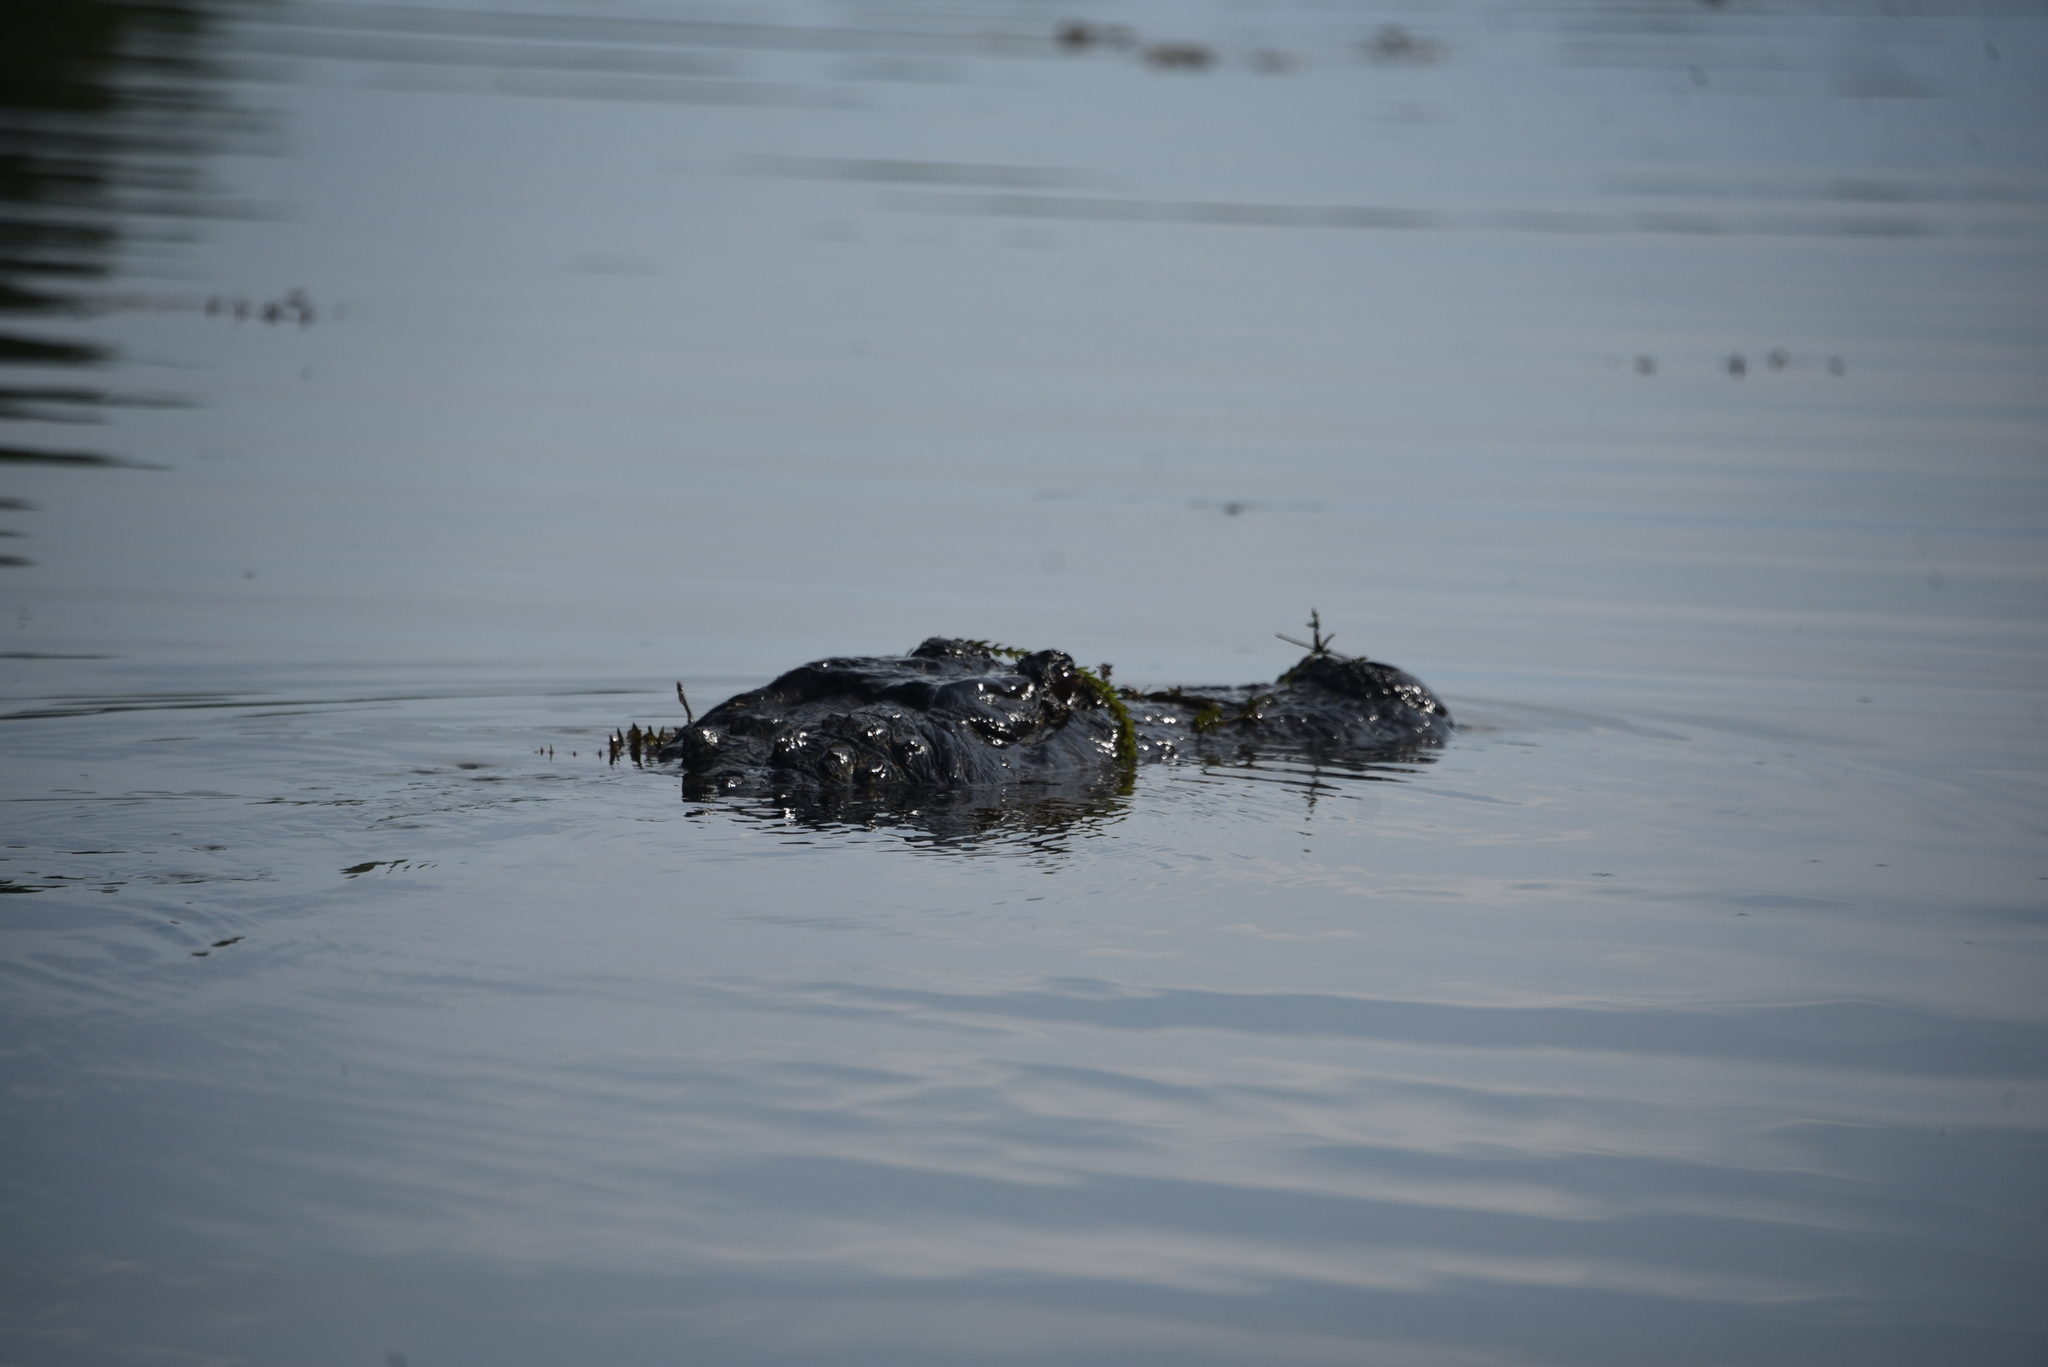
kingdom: Animalia
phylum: Chordata
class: Crocodylia
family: Alligatoridae
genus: Alligator
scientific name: Alligator mississippiensis
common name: American alligator
